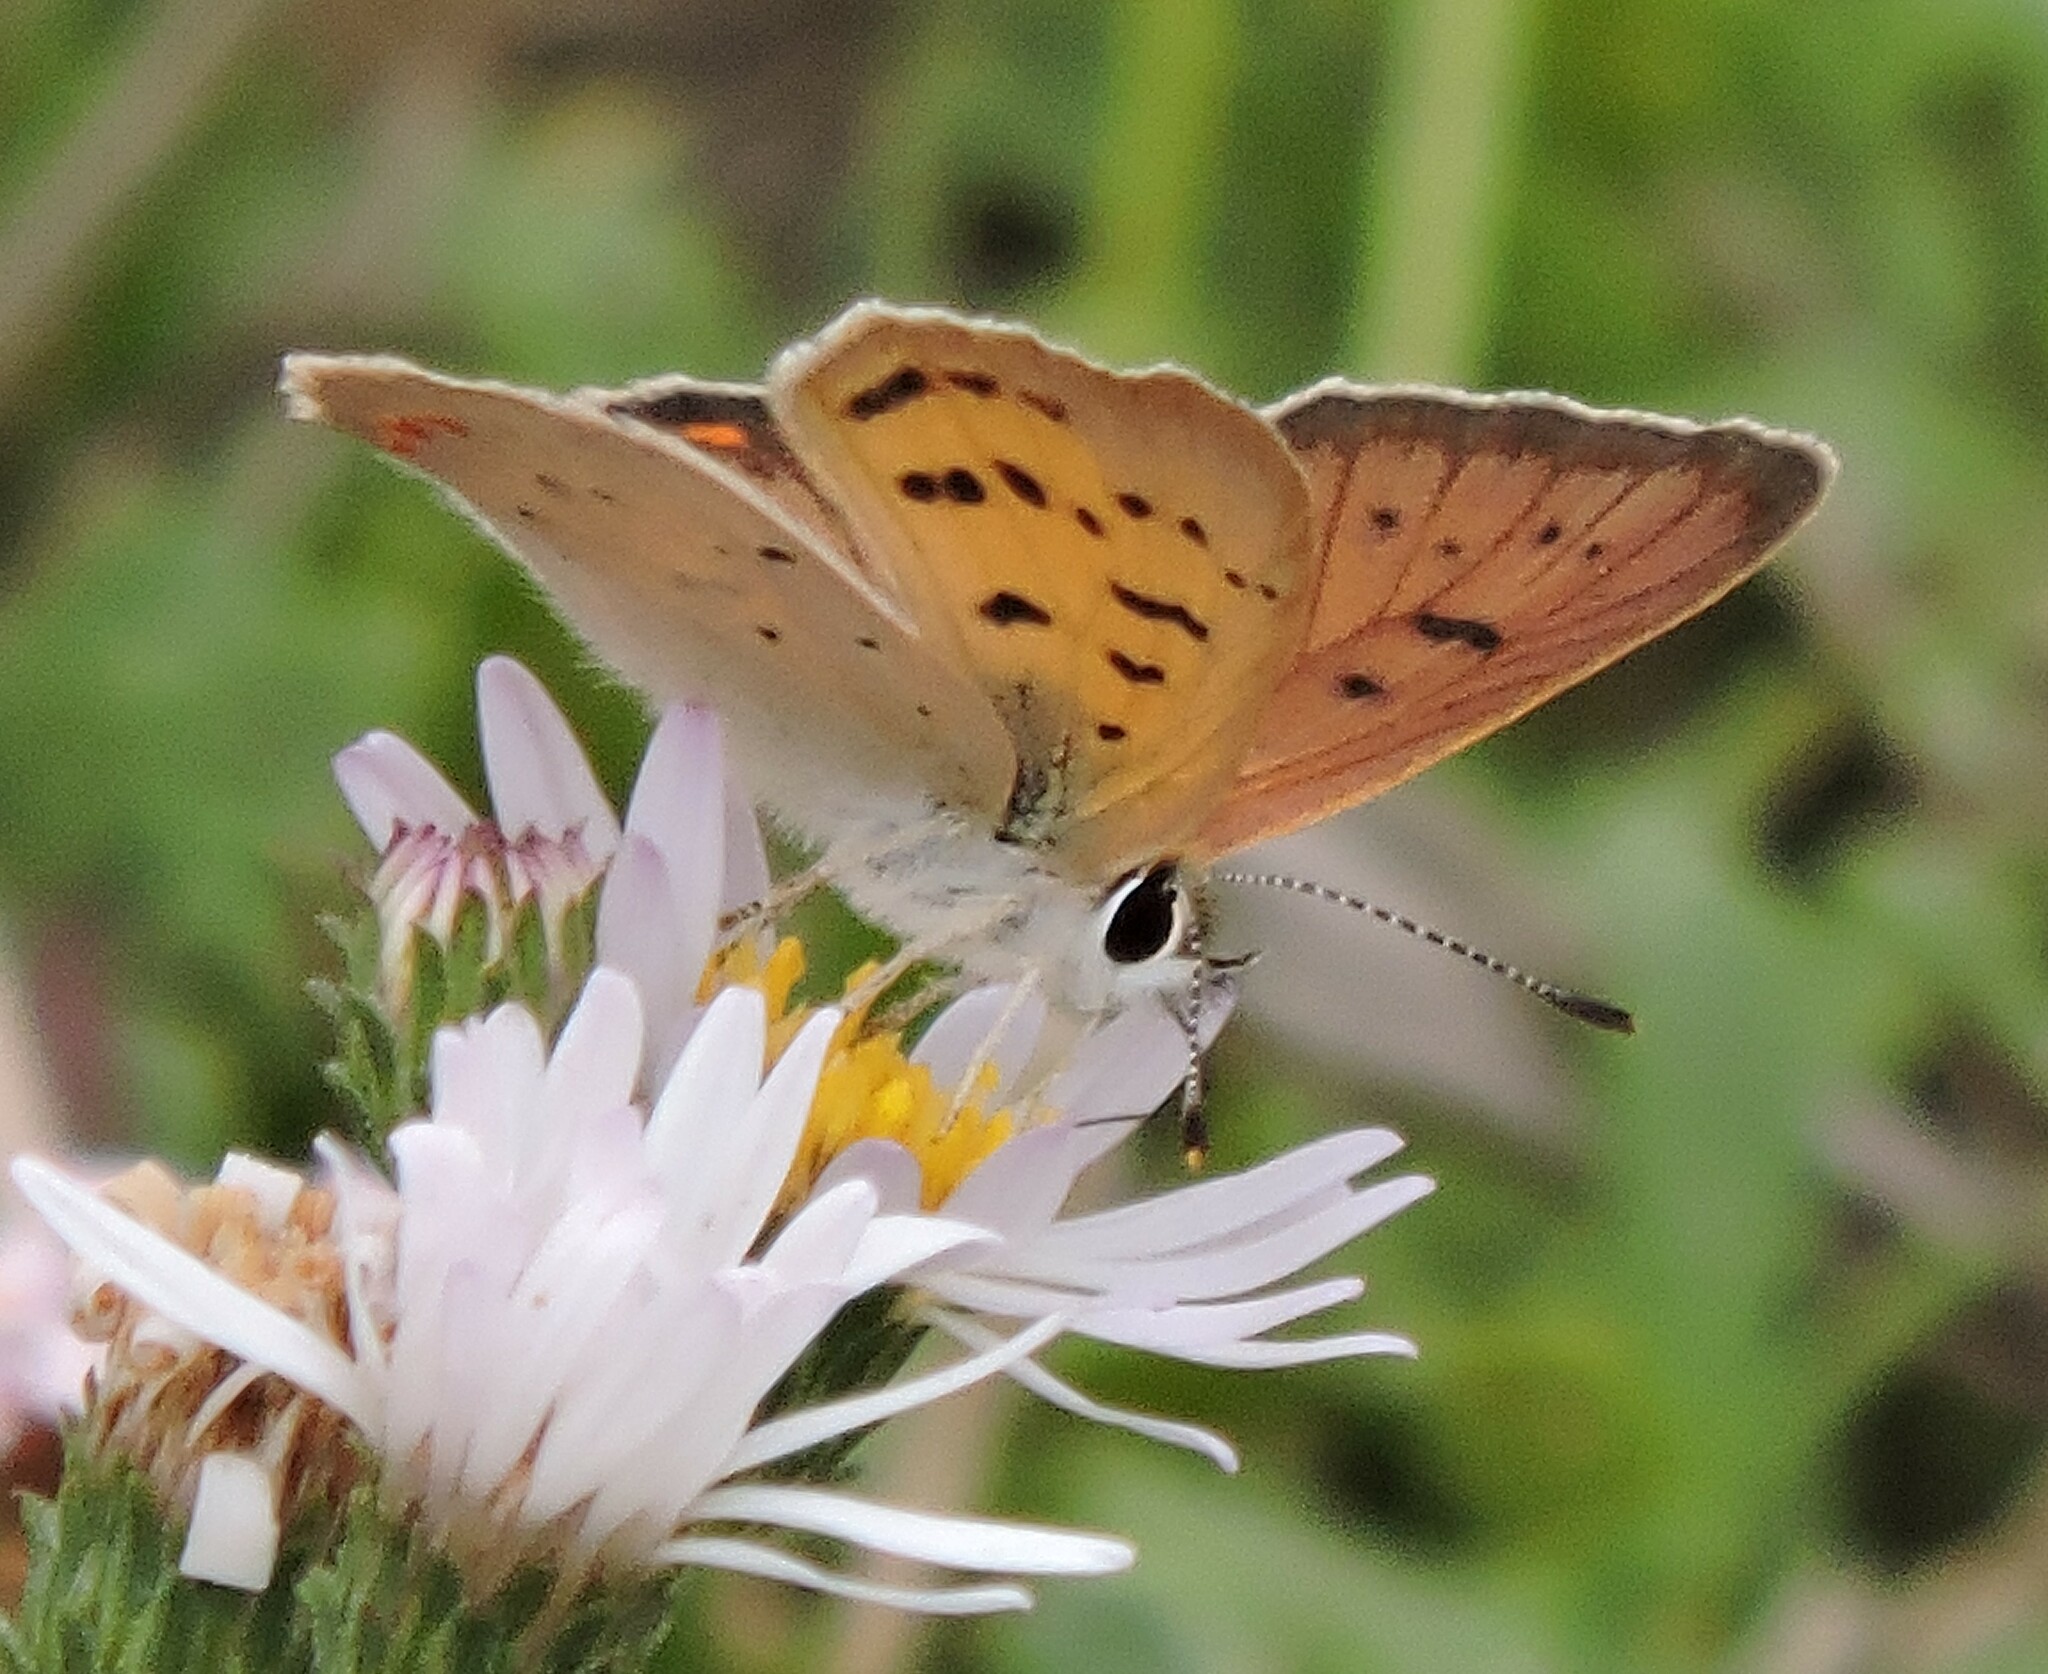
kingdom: Animalia
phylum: Arthropoda
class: Insecta
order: Lepidoptera
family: Lycaenidae
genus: Tharsalea
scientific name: Tharsalea helloides
